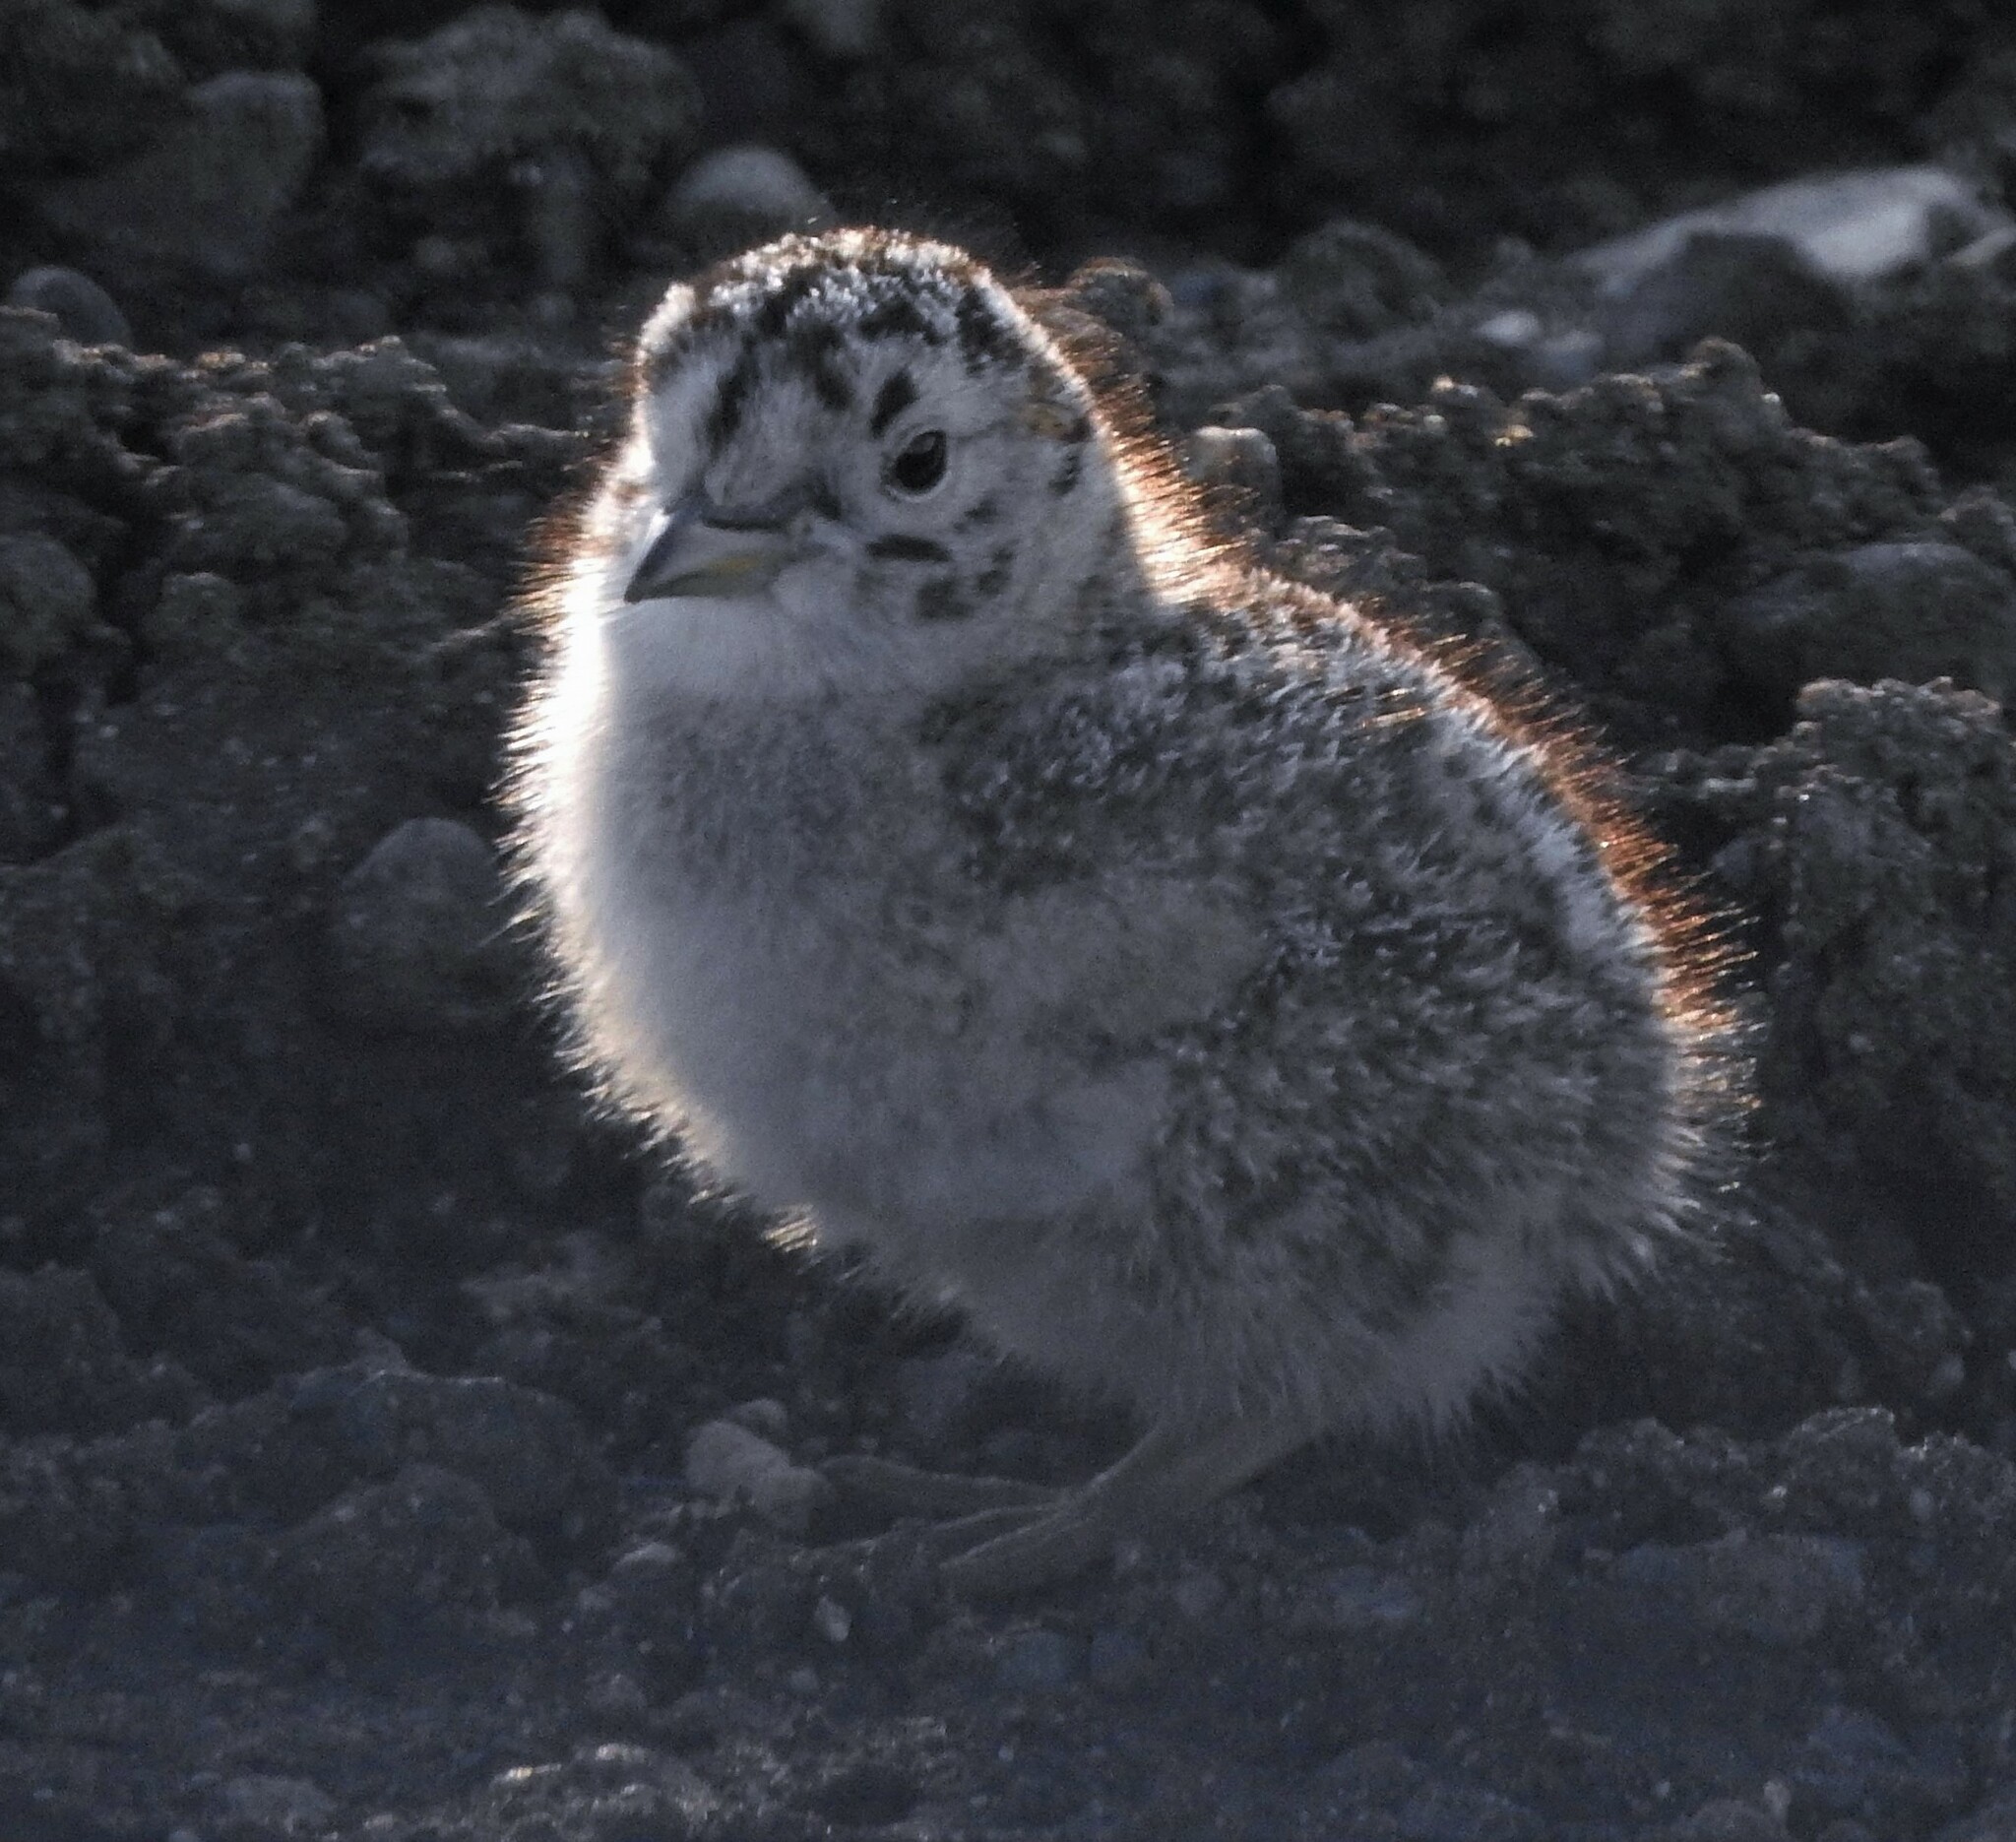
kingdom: Animalia
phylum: Chordata
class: Aves
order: Charadriiformes
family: Thinocoridae
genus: Thinocorus
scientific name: Thinocorus rumicivorus
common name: Least seedsnipe
